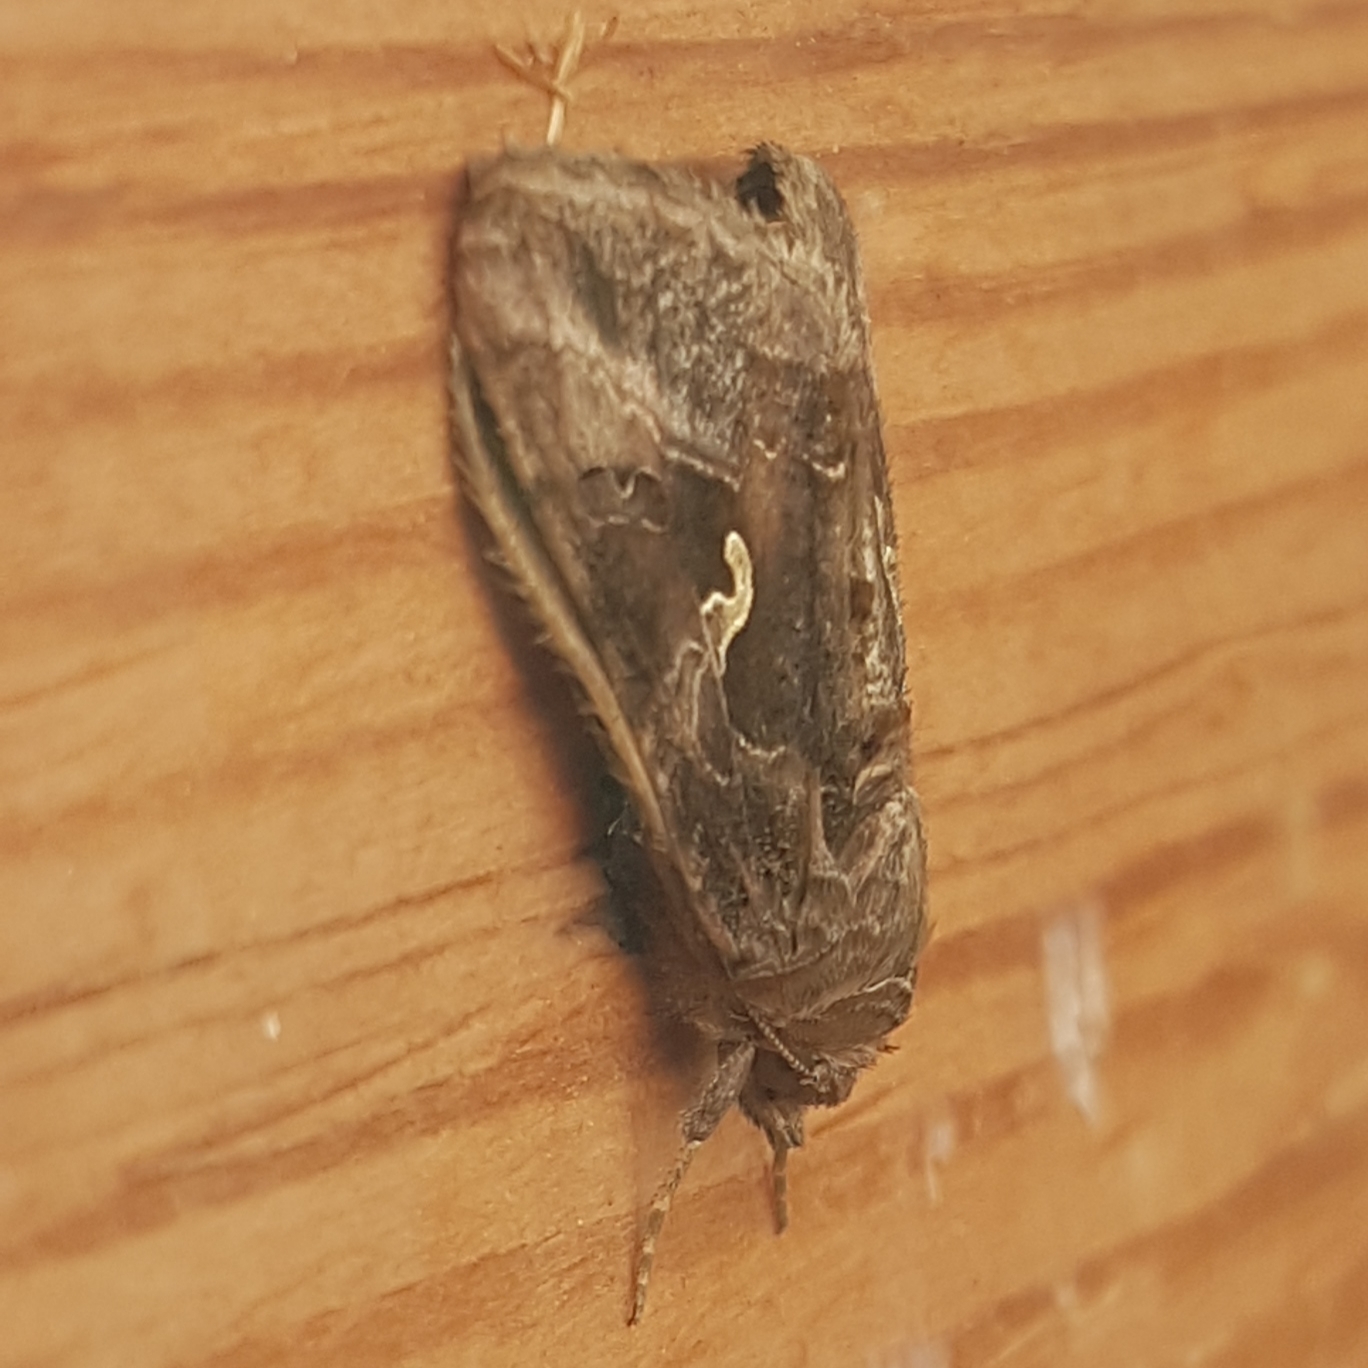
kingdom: Animalia
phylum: Arthropoda
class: Insecta
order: Lepidoptera
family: Noctuidae
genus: Autographa
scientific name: Autographa gamma
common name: Silver y
